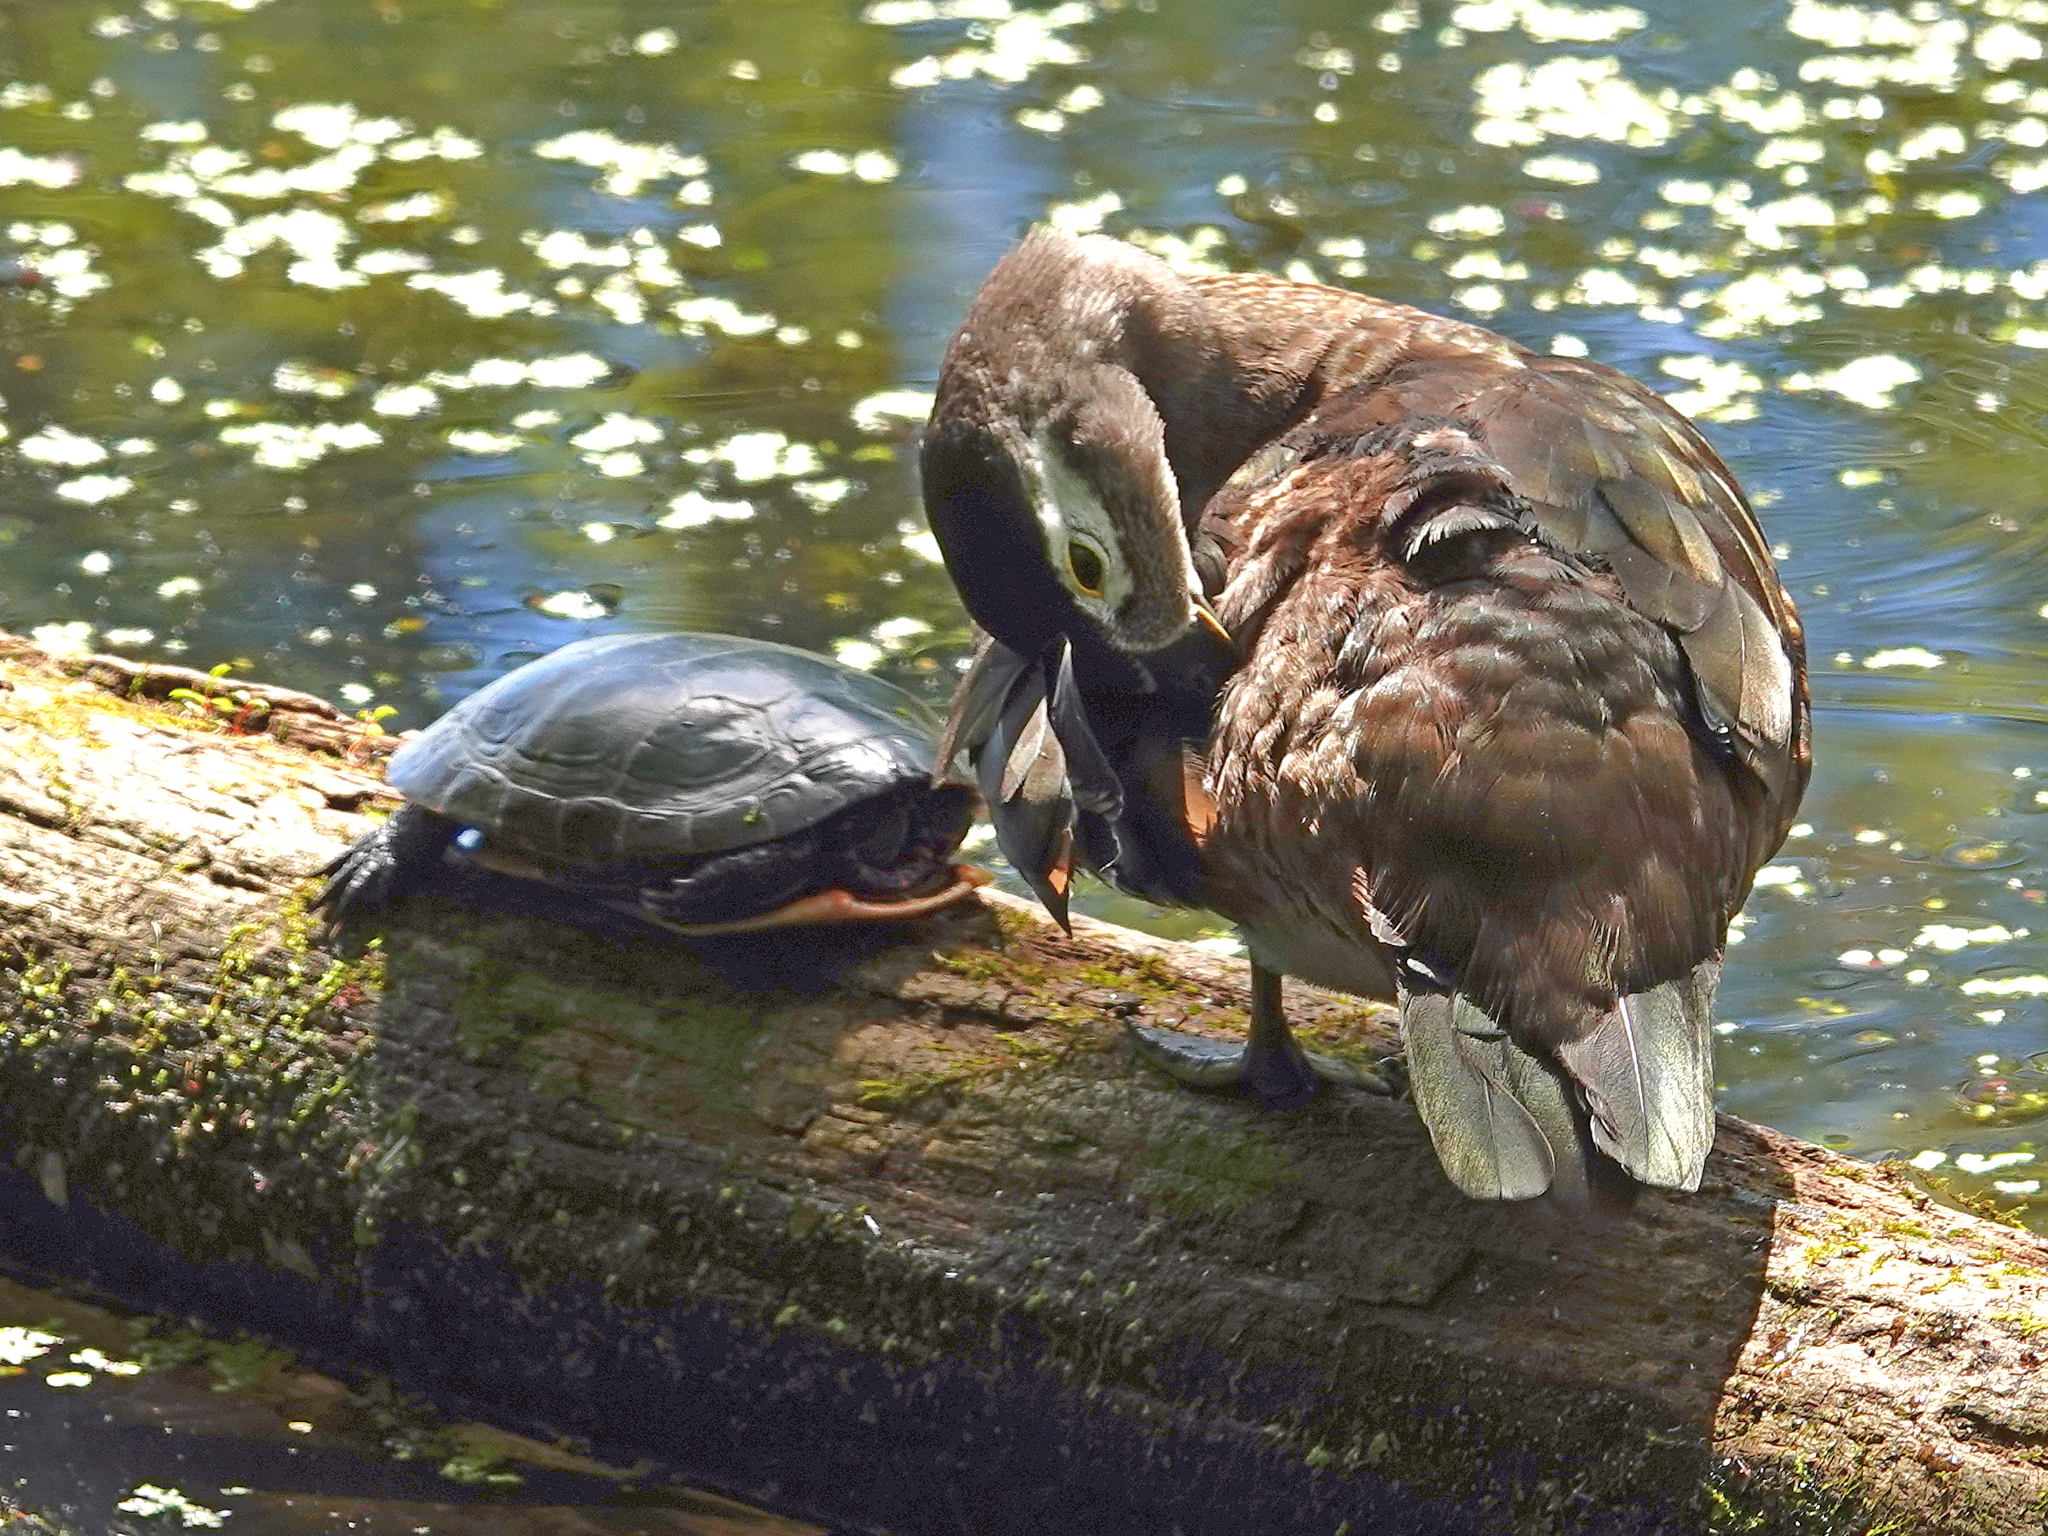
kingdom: Animalia
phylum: Chordata
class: Testudines
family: Emydidae
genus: Chrysemys
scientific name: Chrysemys picta
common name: Painted turtle
